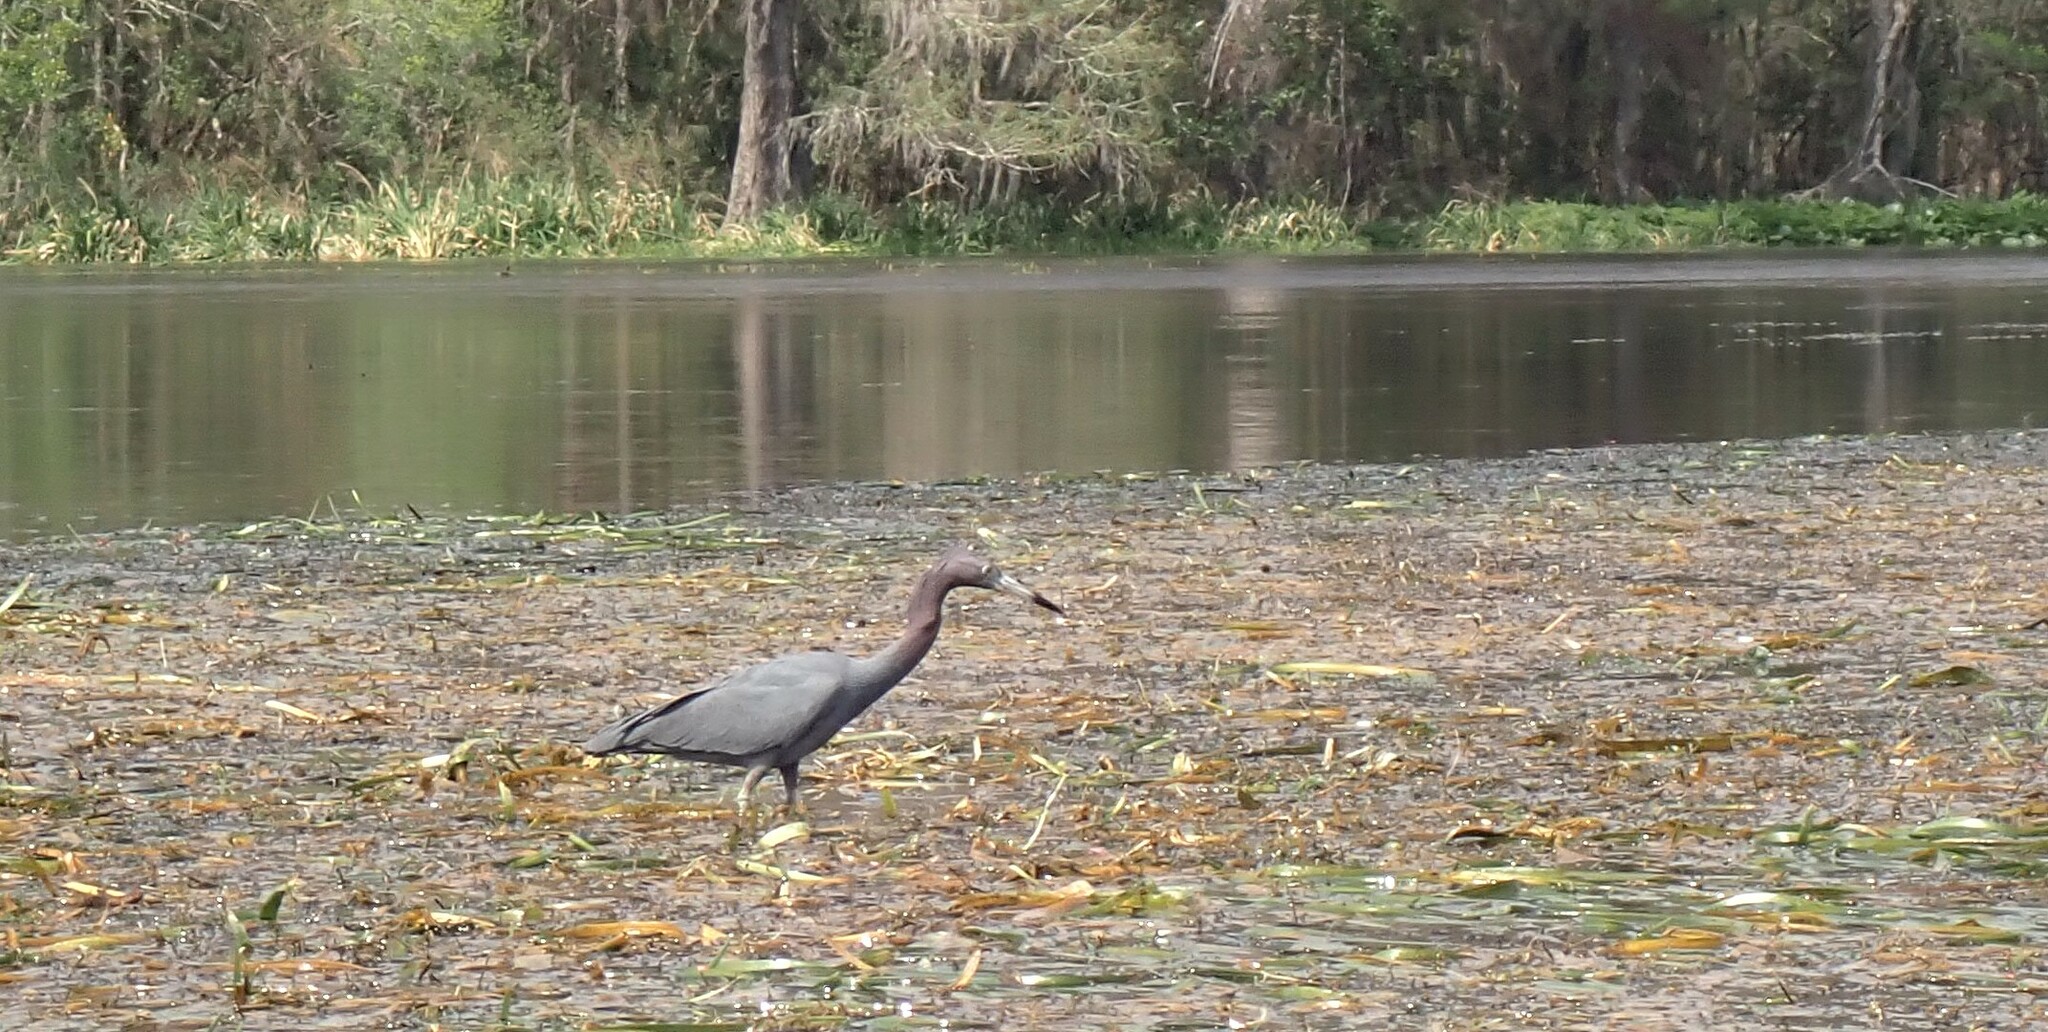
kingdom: Animalia
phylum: Chordata
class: Aves
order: Pelecaniformes
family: Ardeidae
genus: Egretta
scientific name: Egretta caerulea
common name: Little blue heron
